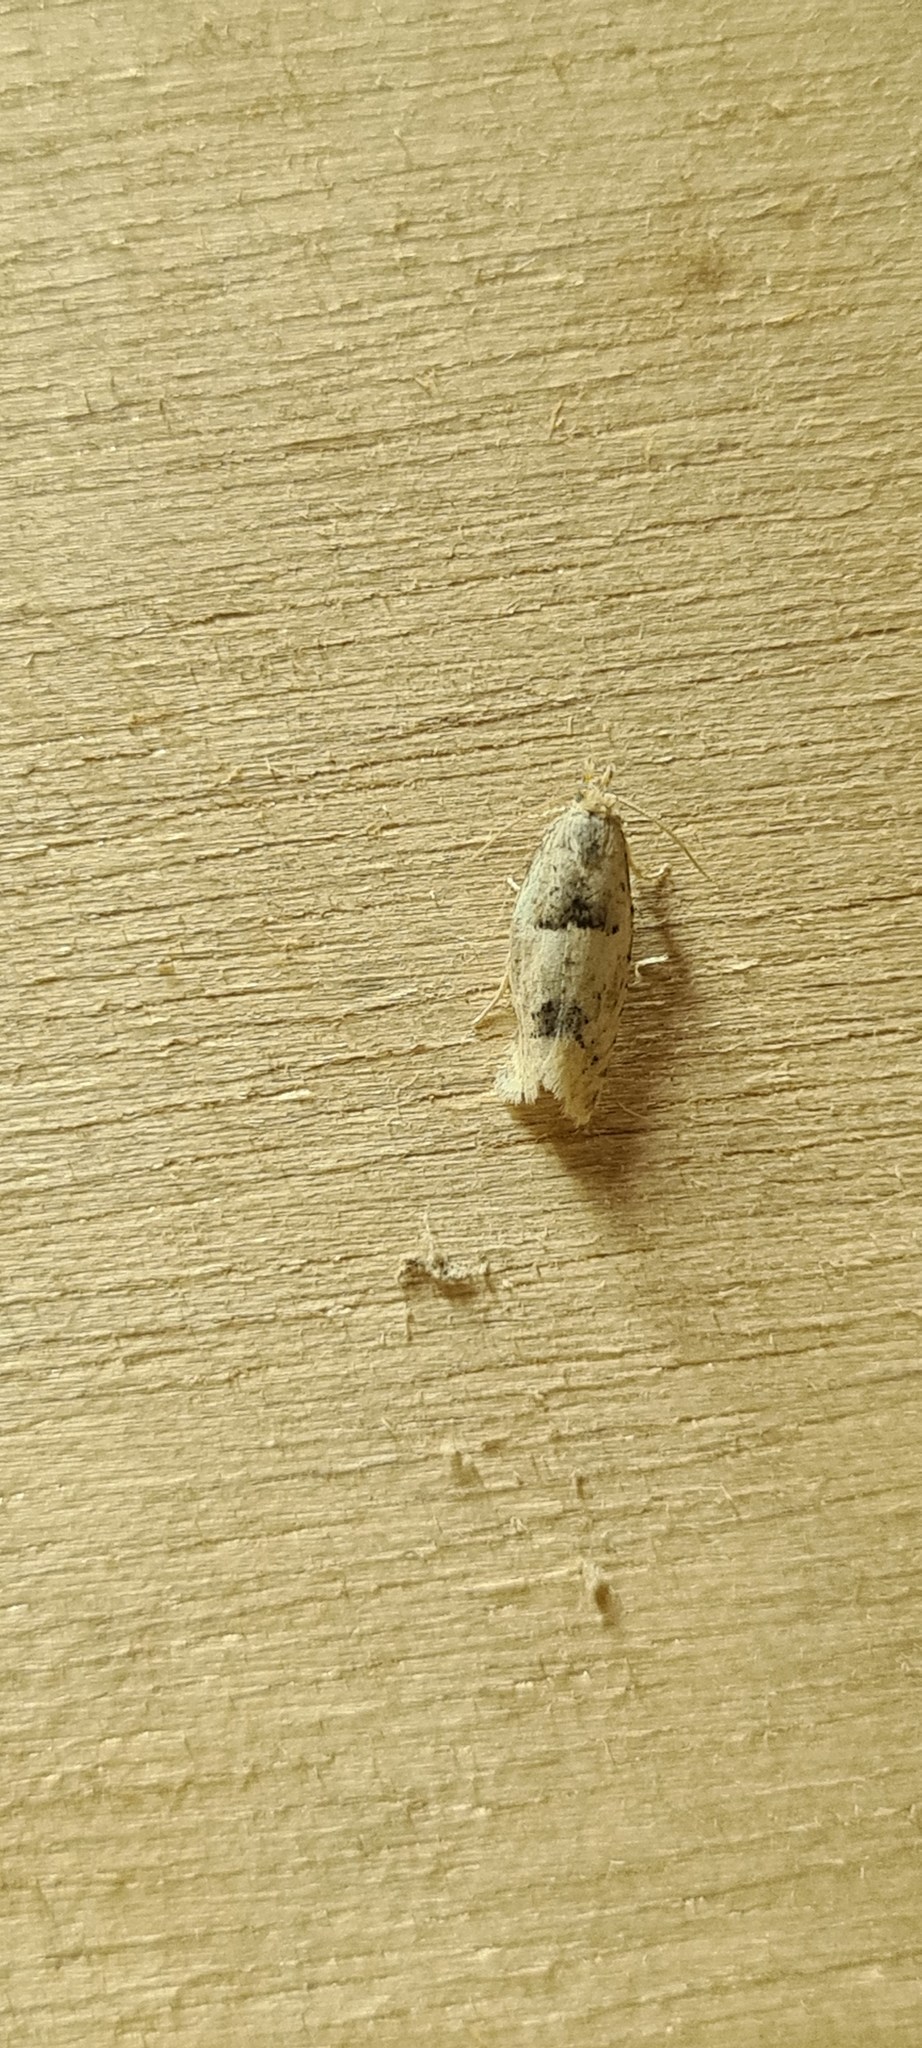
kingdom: Animalia
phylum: Arthropoda
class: Insecta
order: Lepidoptera
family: Tortricidae
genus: Epinotia
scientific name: Epinotia bilunana
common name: Crescent bell
